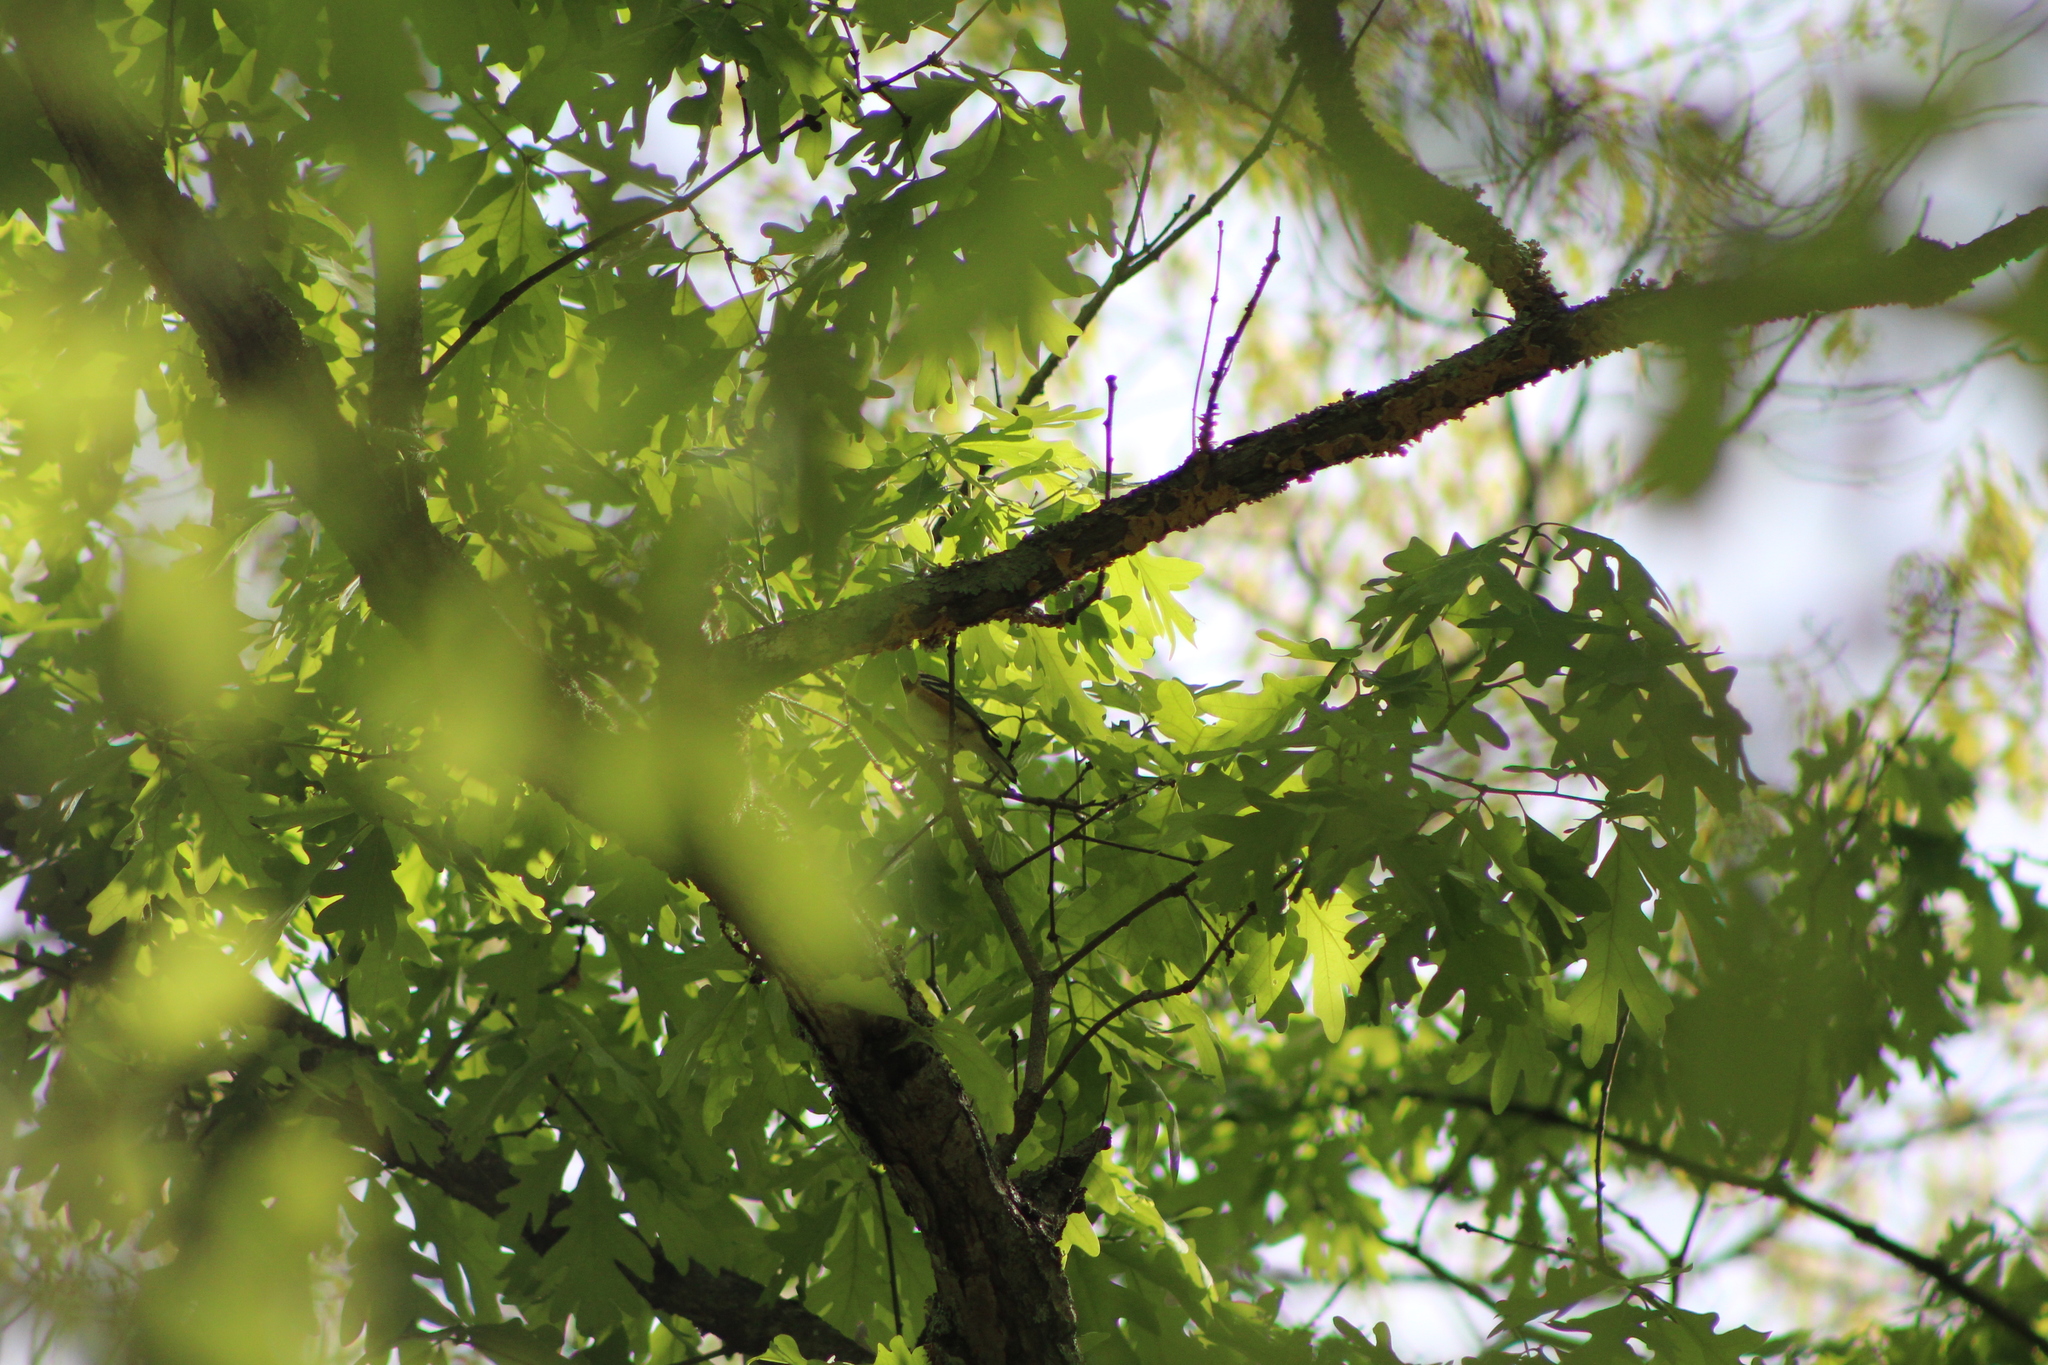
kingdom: Animalia
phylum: Chordata
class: Aves
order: Passeriformes
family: Parulidae
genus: Setophaga
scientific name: Setophaga castanea
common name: Bay-breasted warbler
